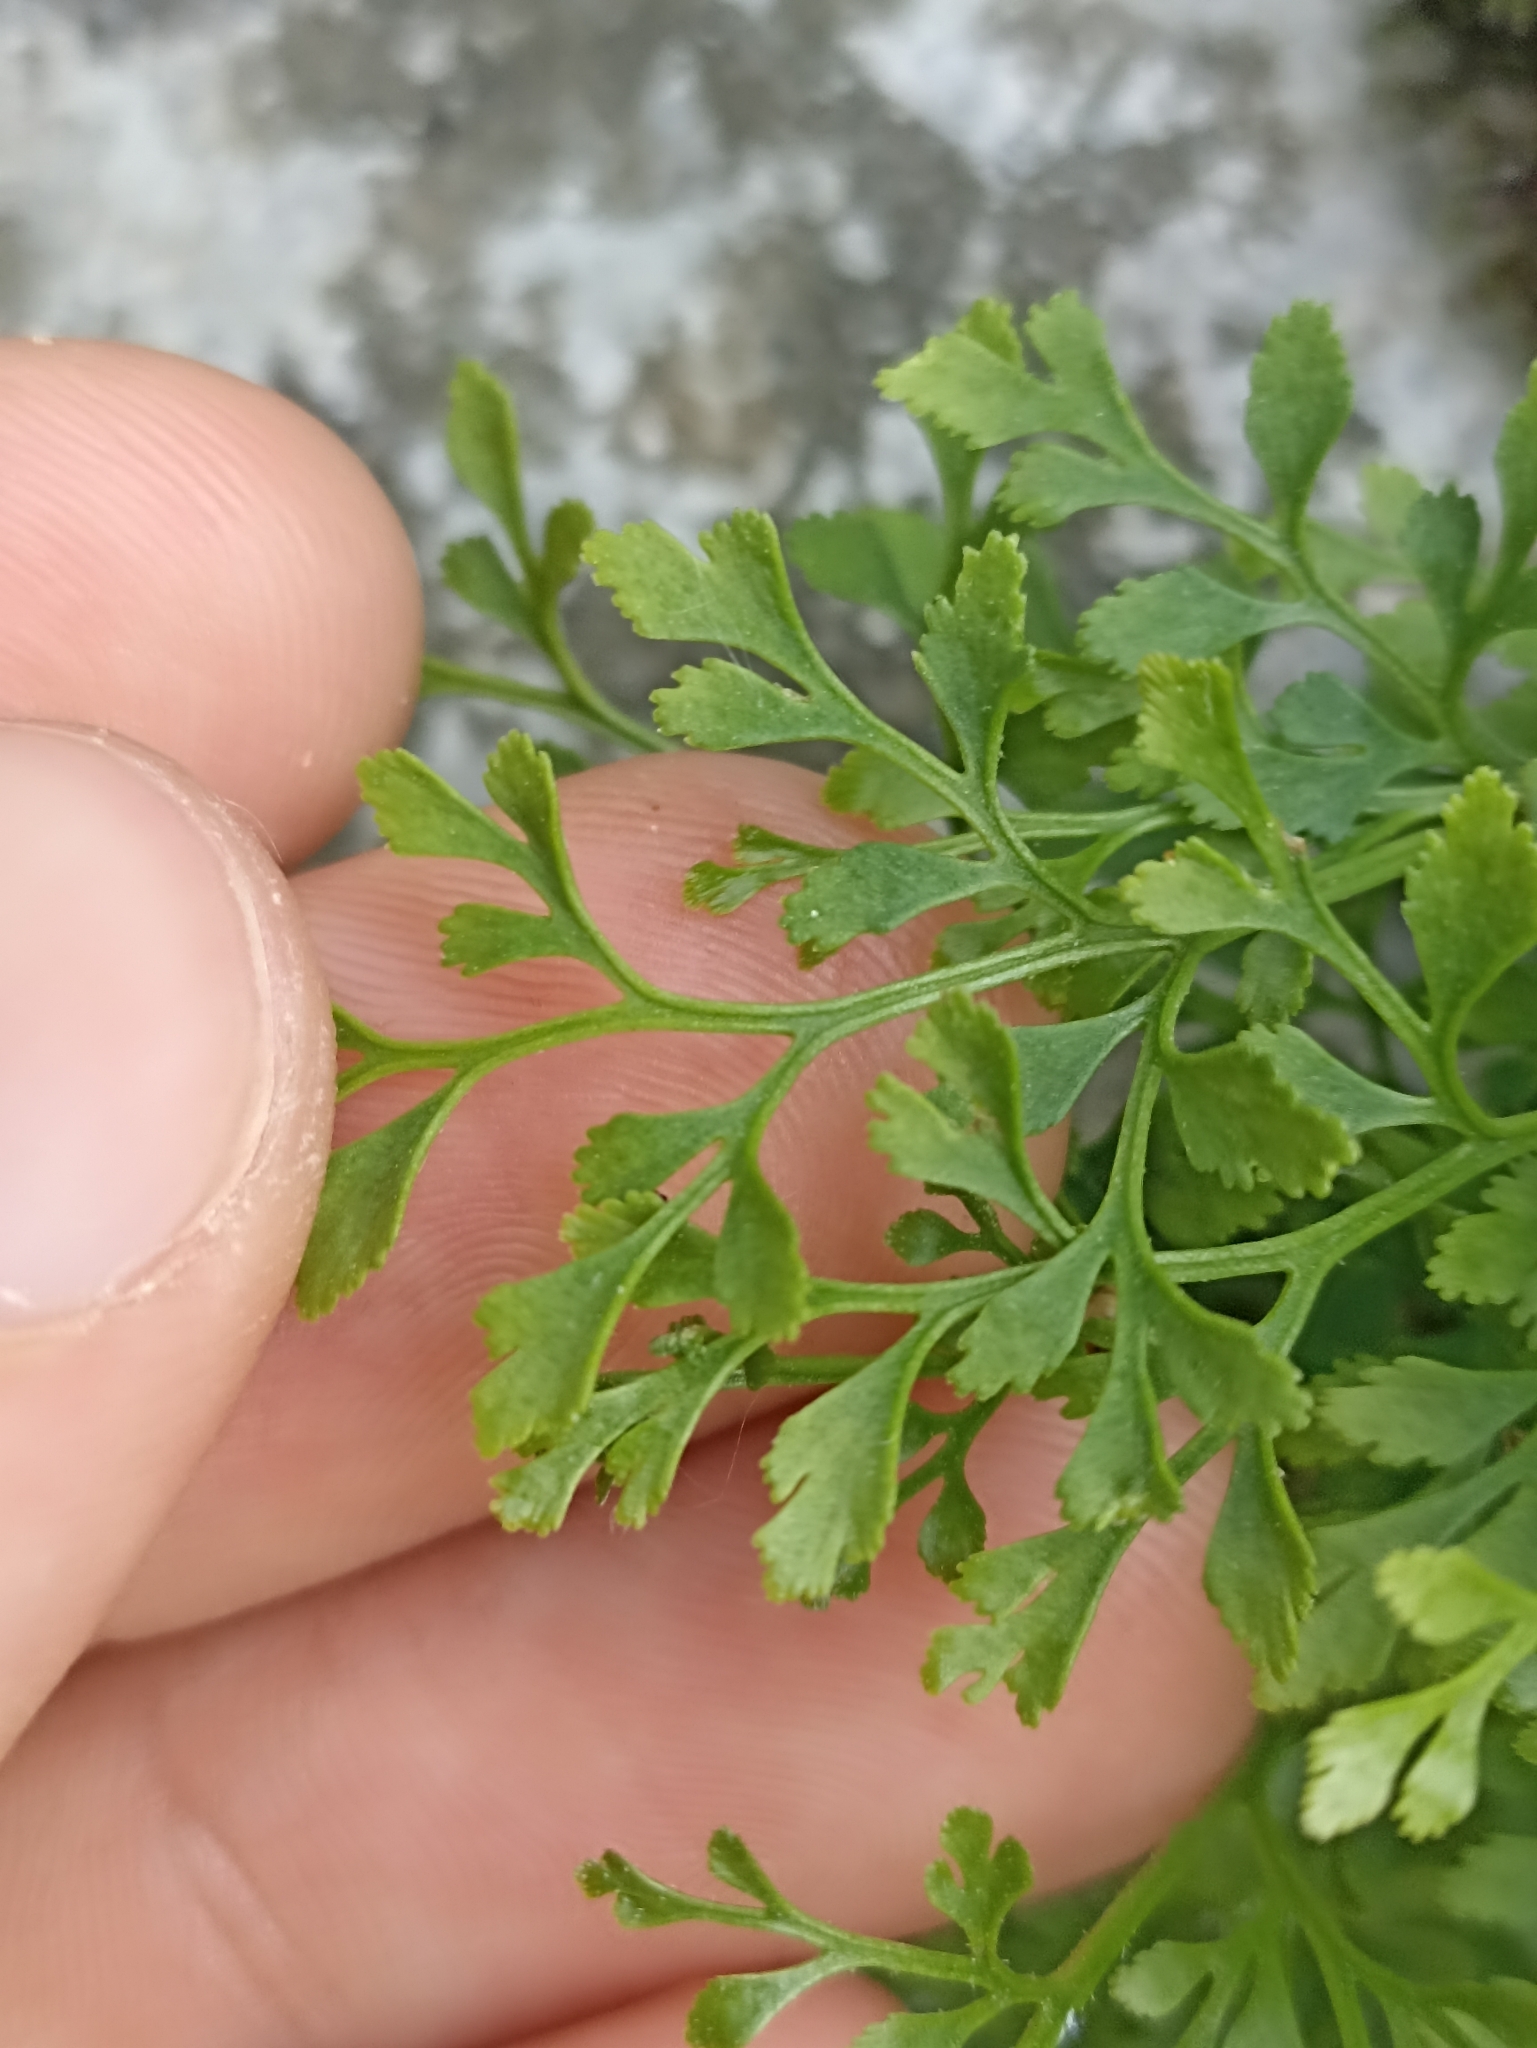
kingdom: Plantae
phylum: Tracheophyta
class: Polypodiopsida
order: Polypodiales
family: Aspleniaceae
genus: Asplenium
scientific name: Asplenium ruta-muraria
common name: Wall-rue
